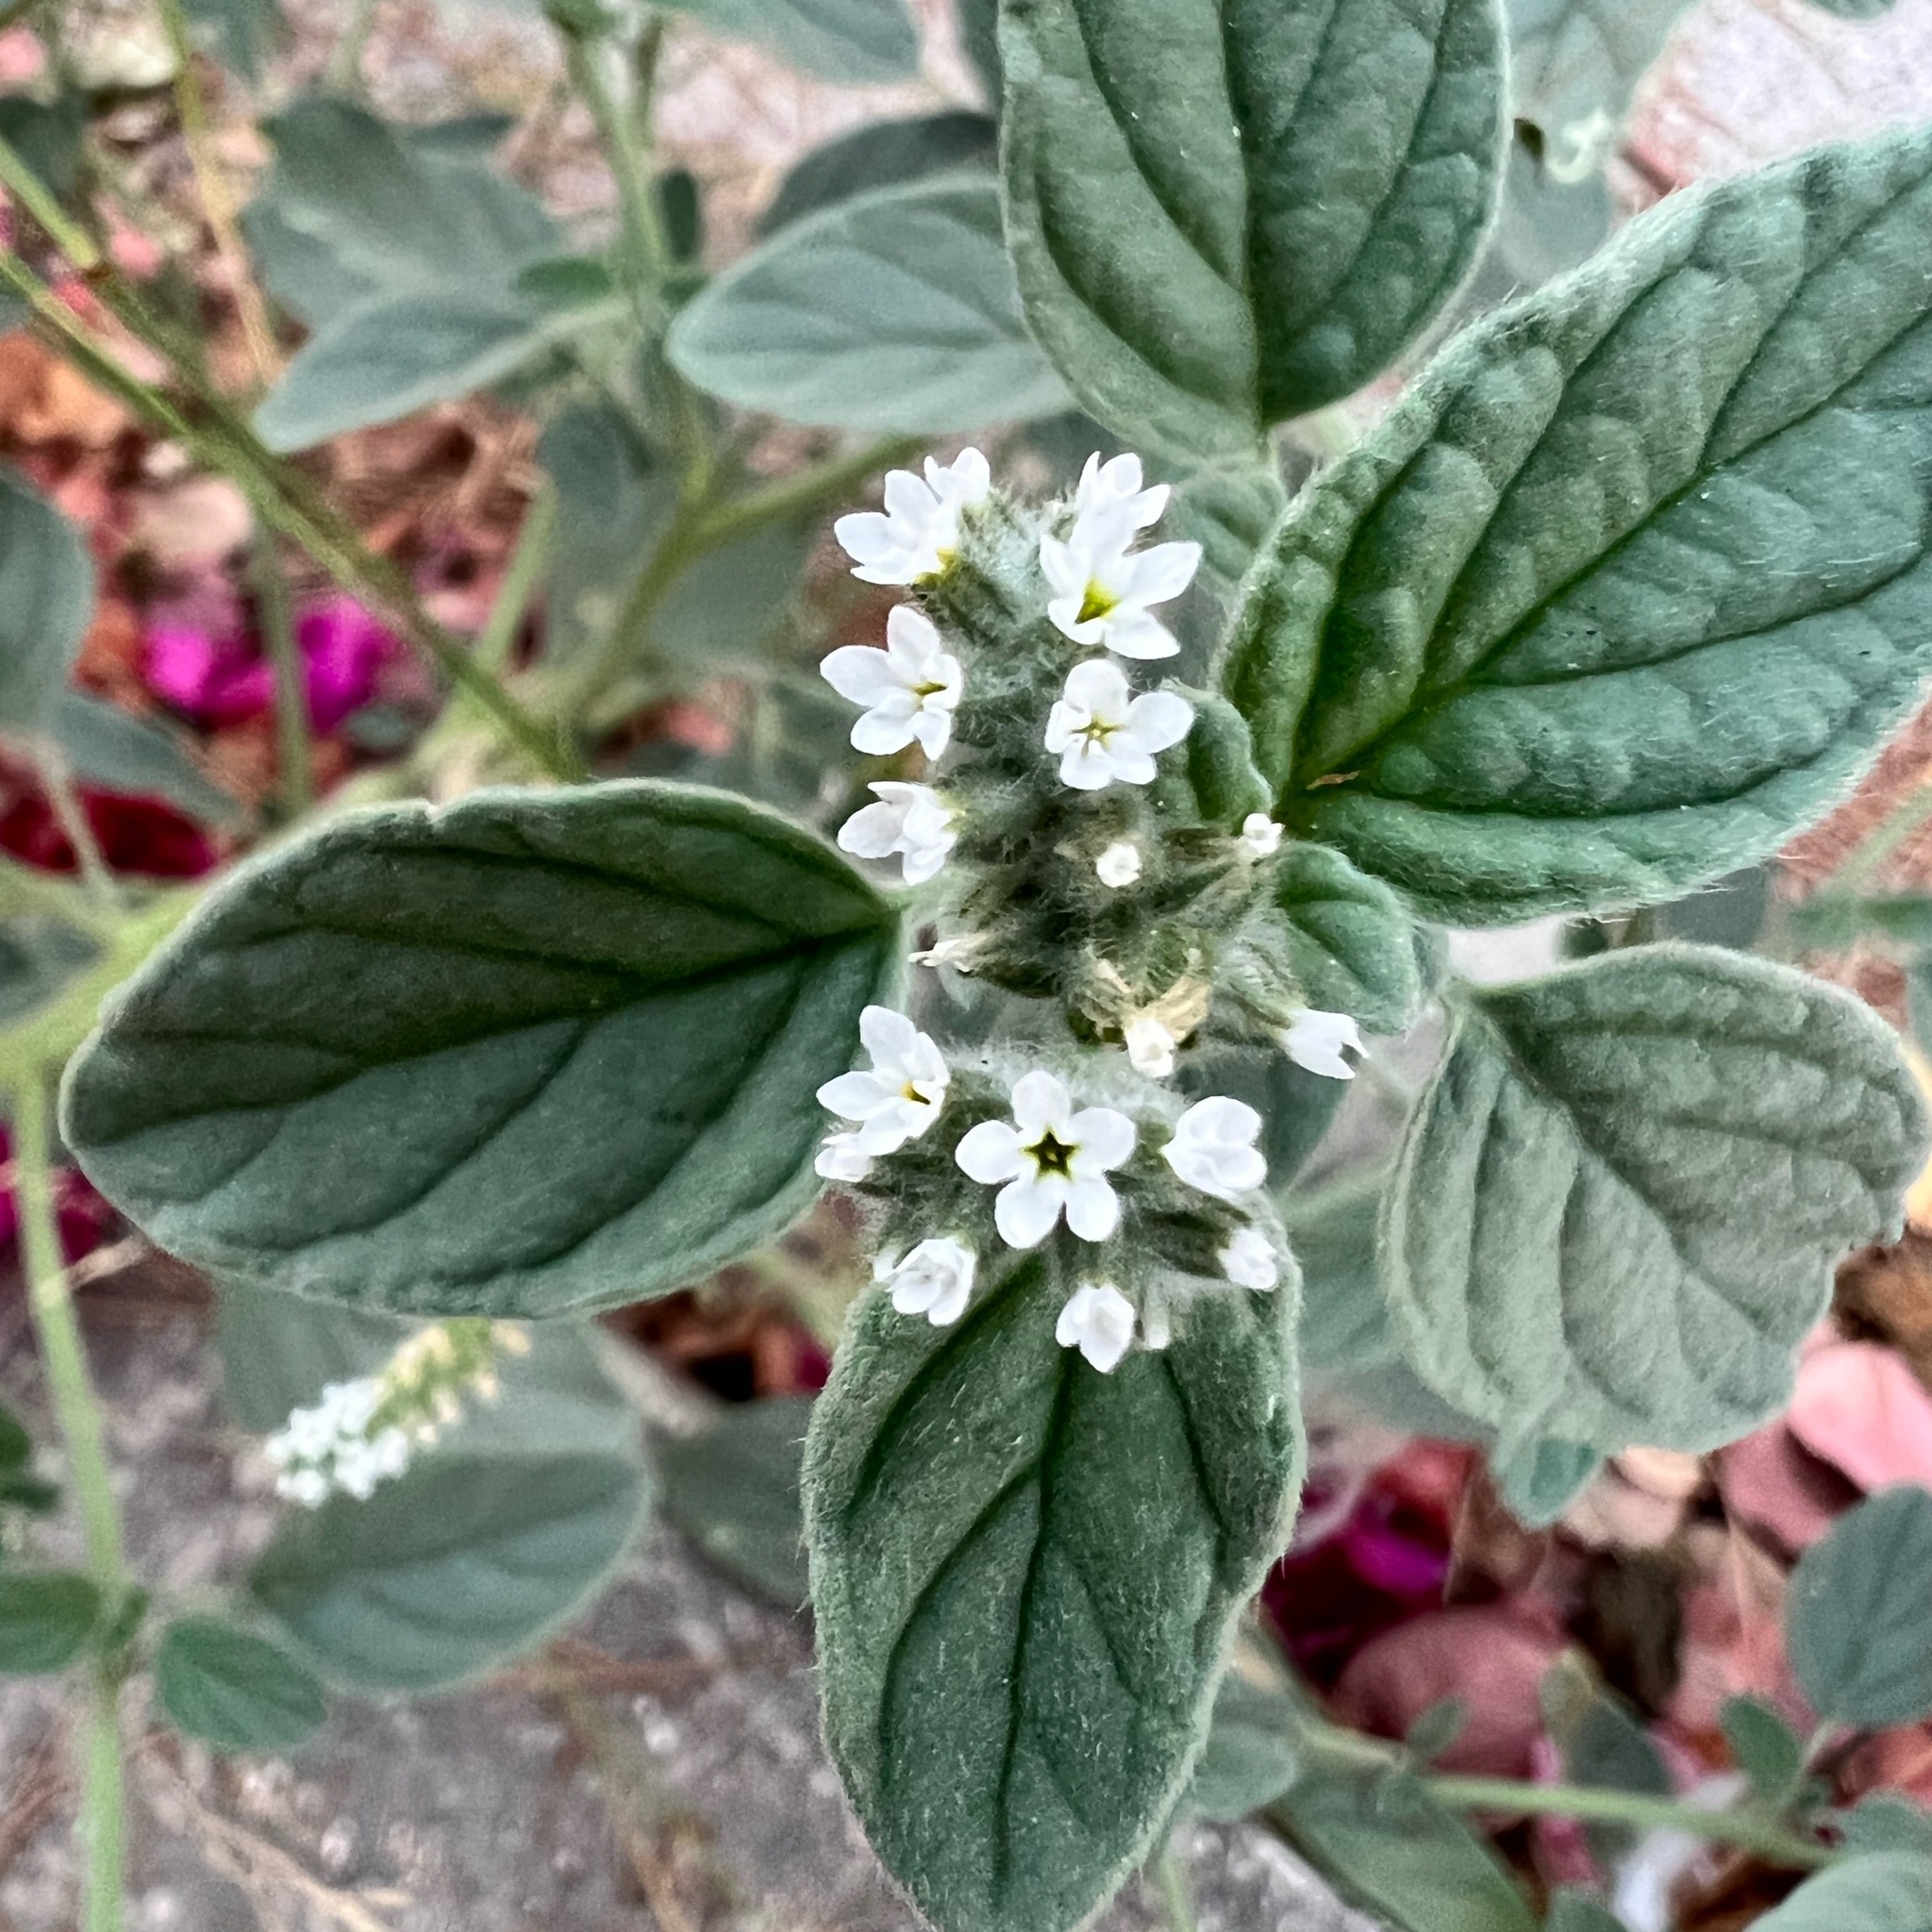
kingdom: Plantae
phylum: Tracheophyta
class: Magnoliopsida
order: Boraginales
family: Heliotropiaceae
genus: Heliotropium
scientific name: Heliotropium europaeum
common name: European heliotrope
